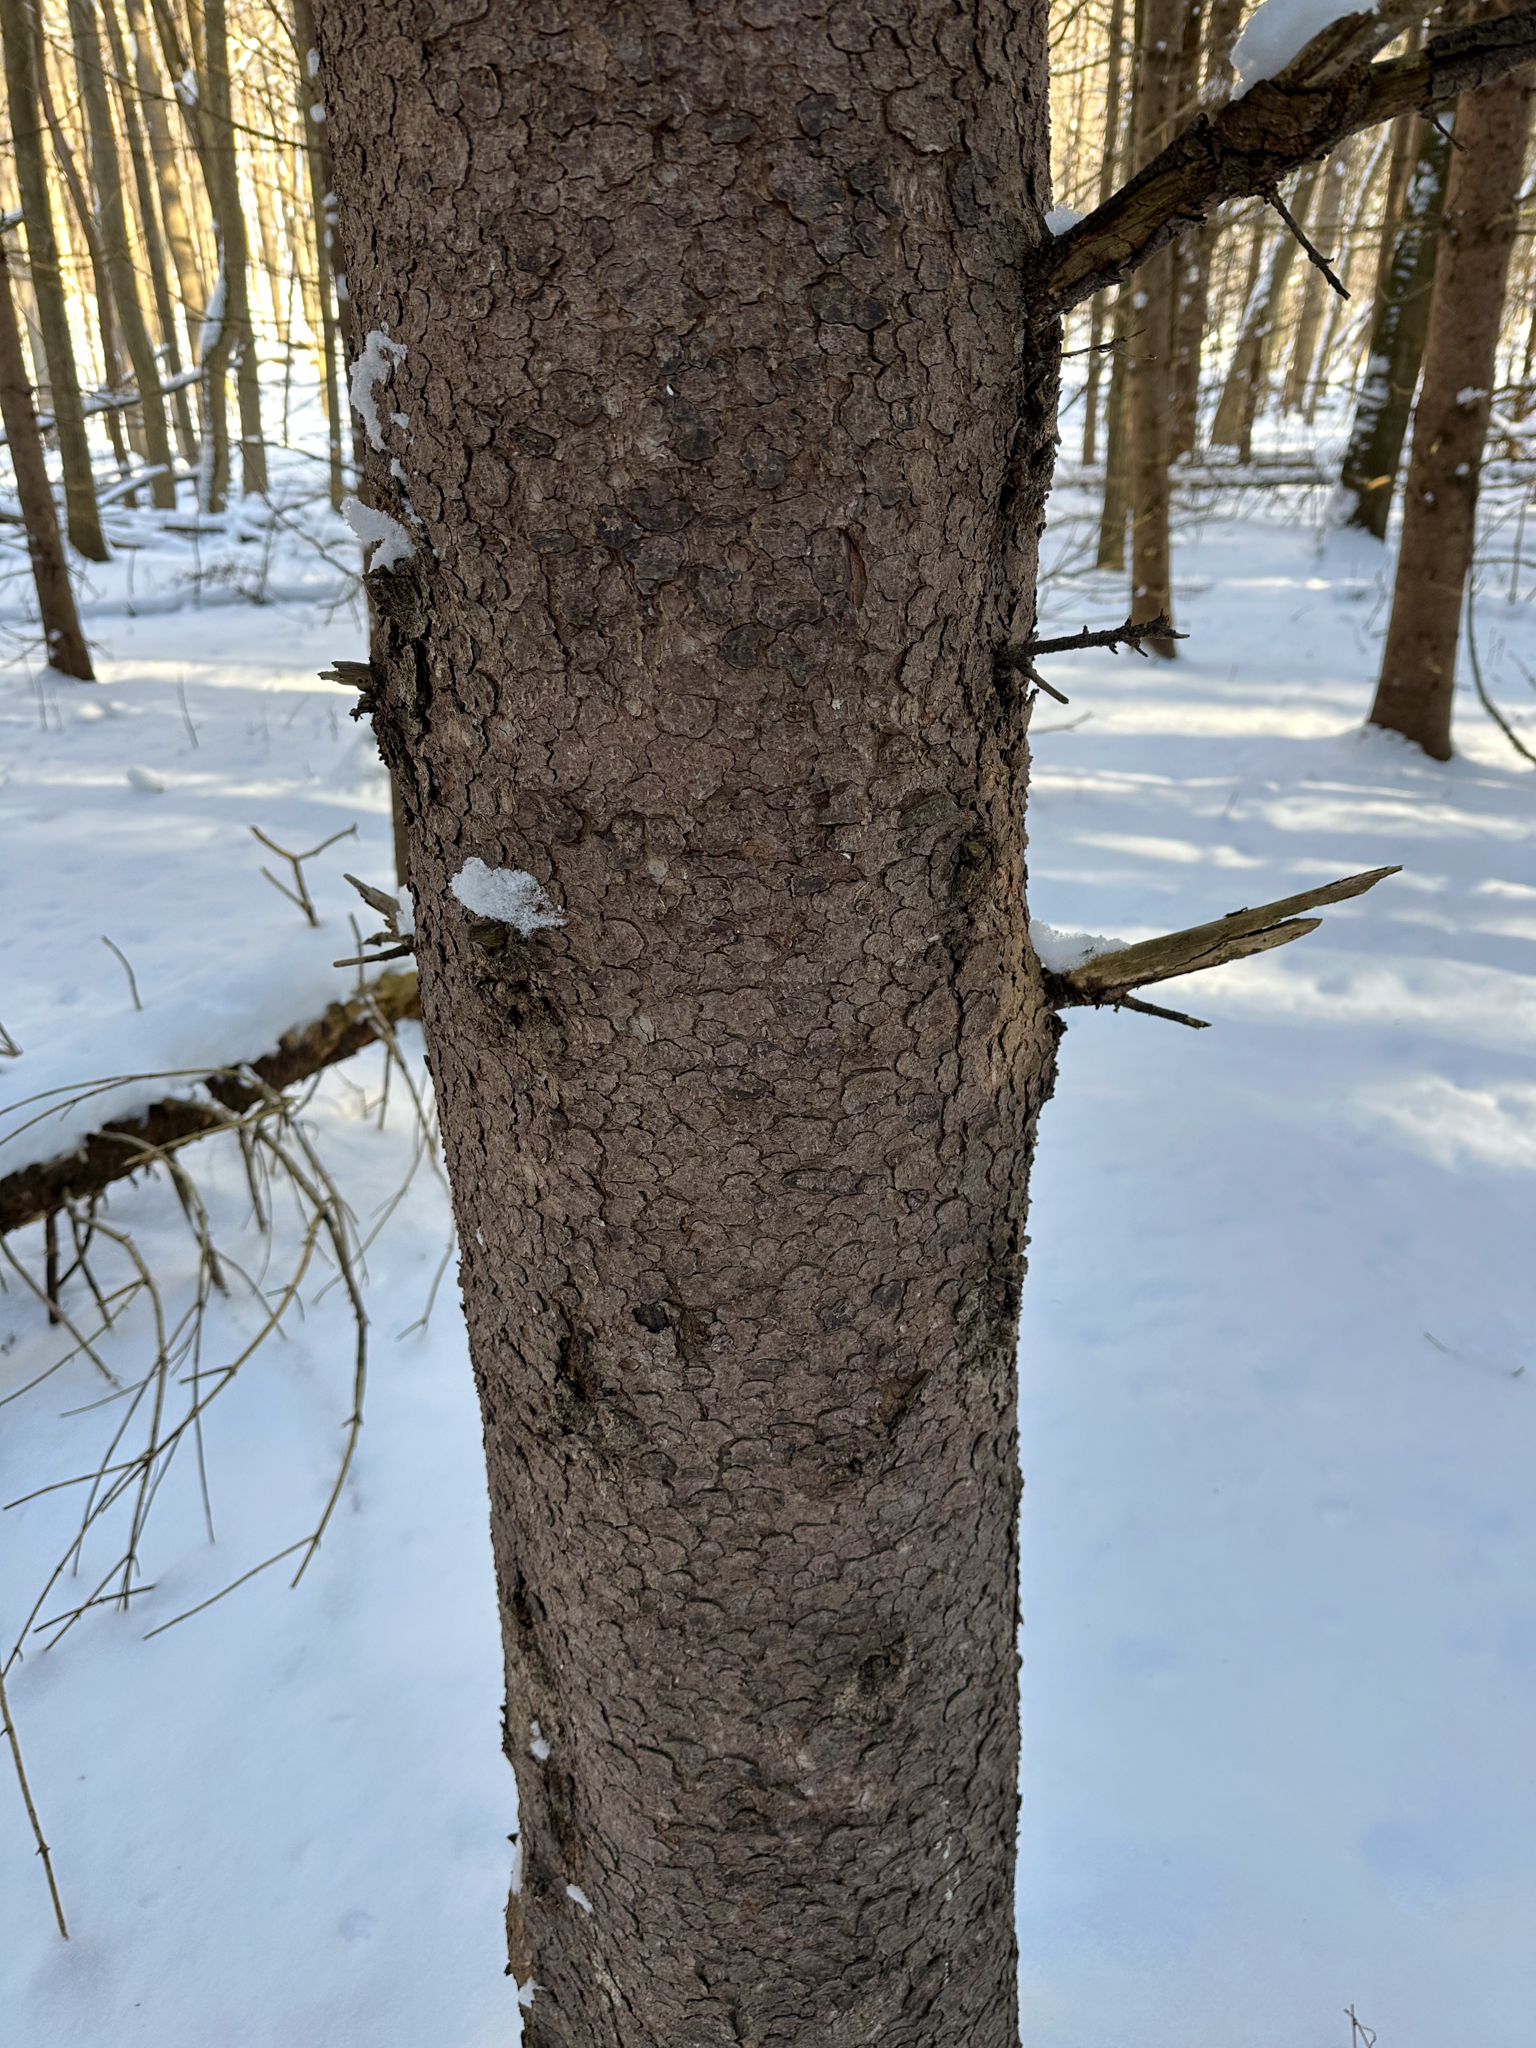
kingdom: Plantae
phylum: Tracheophyta
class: Pinopsida
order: Pinales
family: Pinaceae
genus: Picea
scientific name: Picea glauca
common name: White spruce
